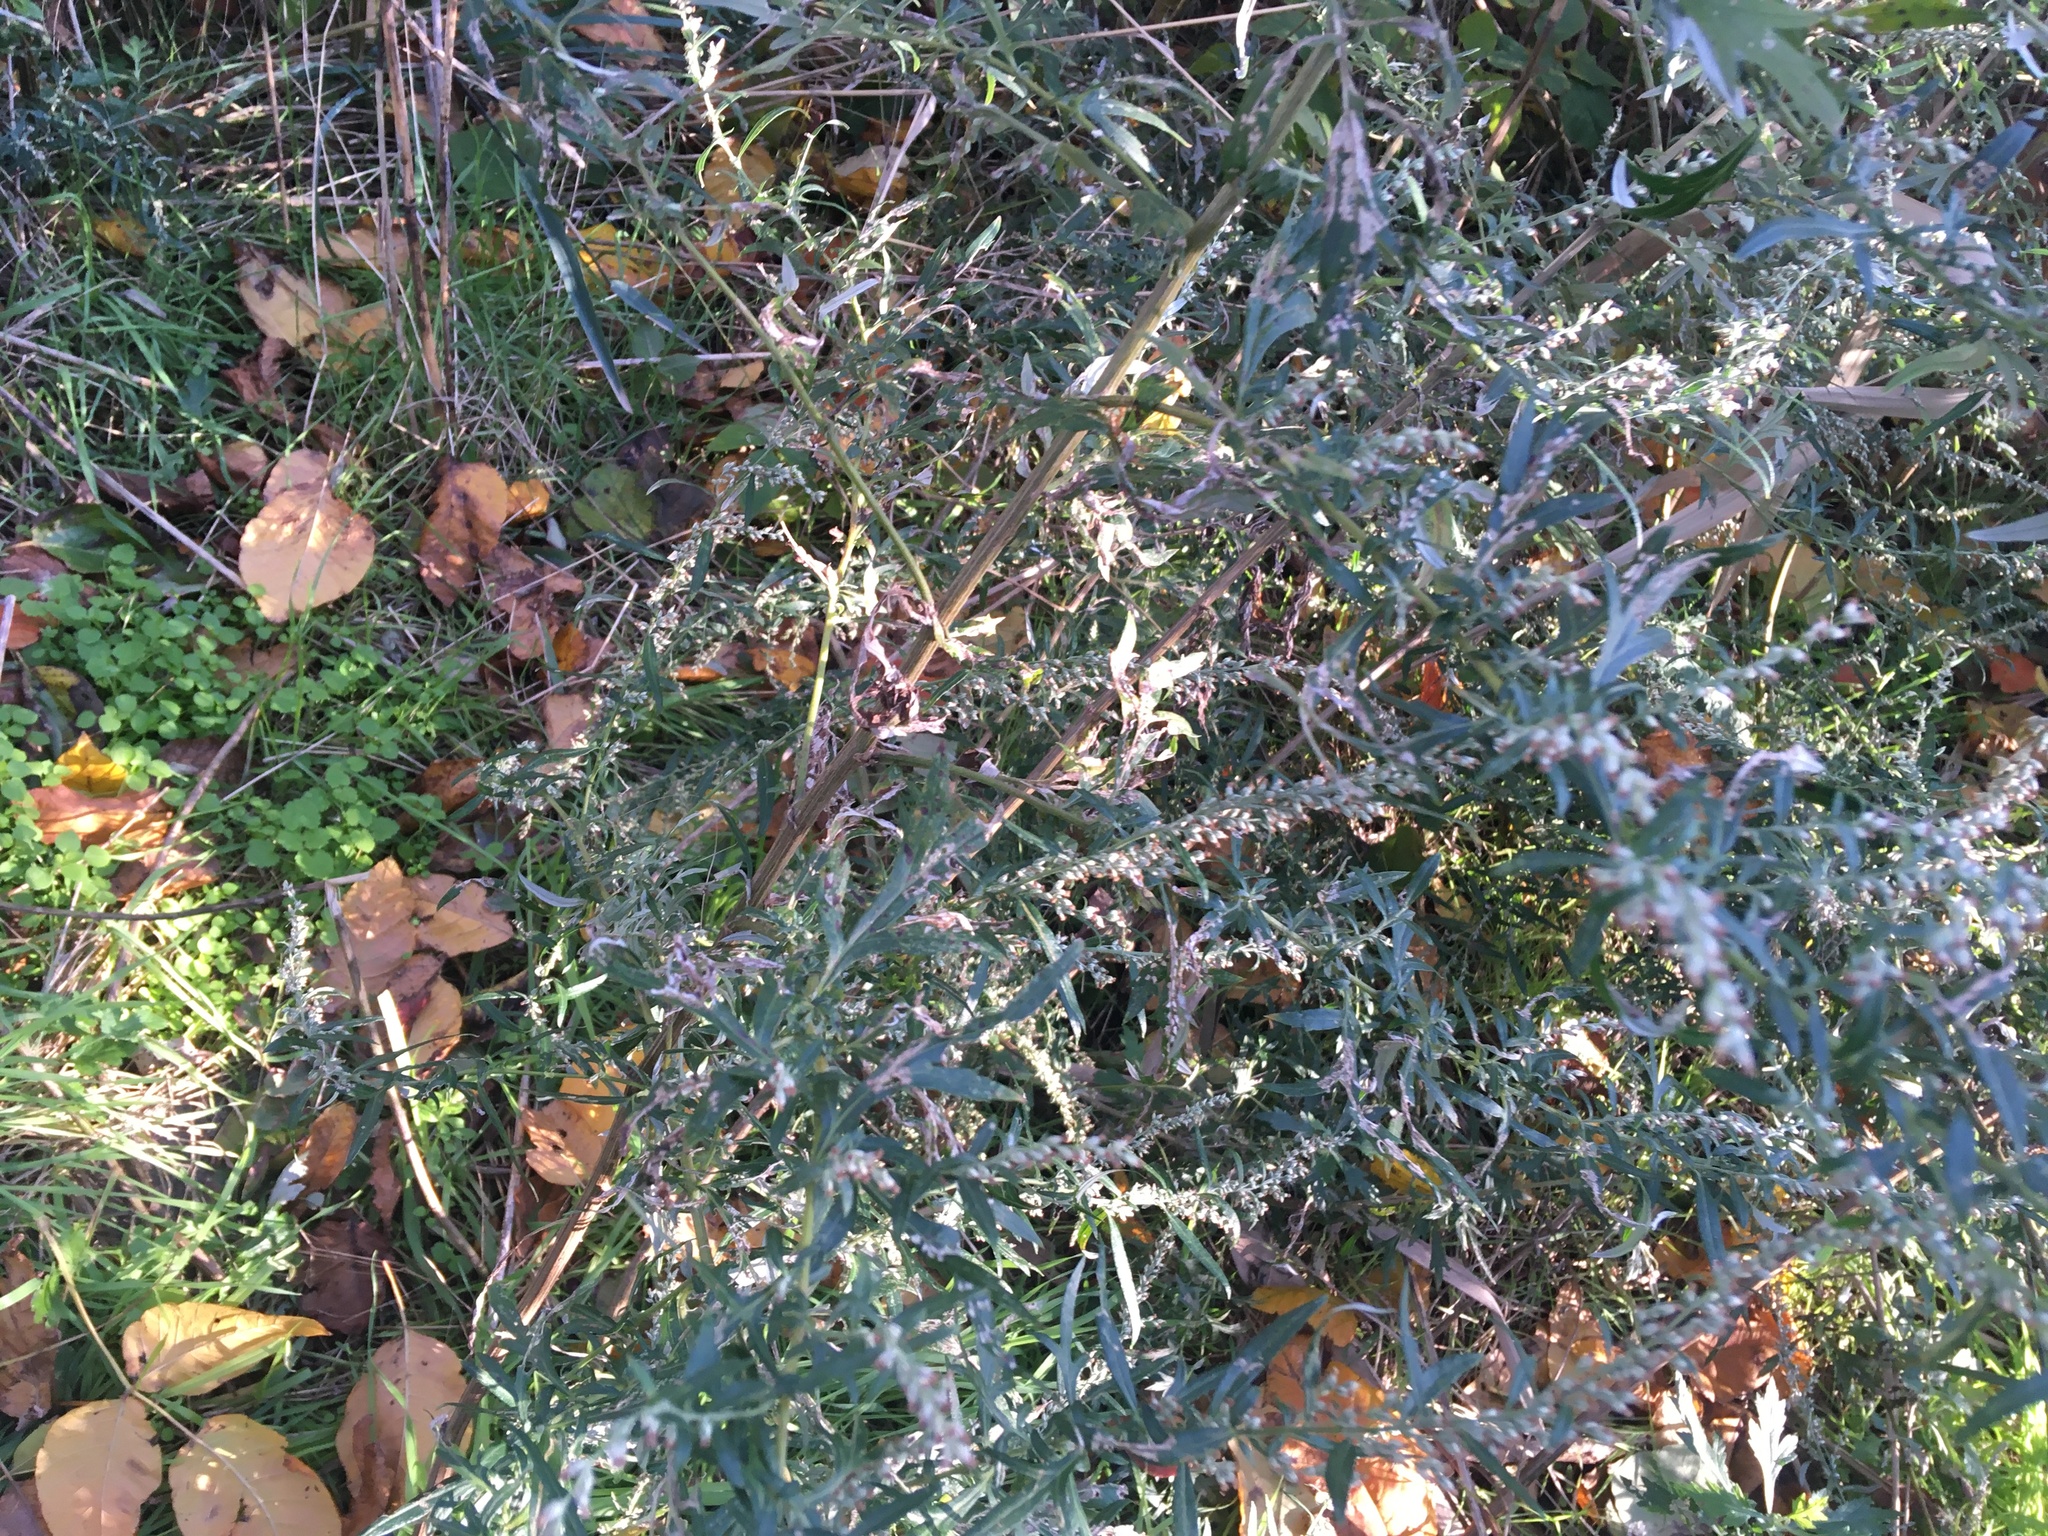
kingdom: Plantae
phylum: Tracheophyta
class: Magnoliopsida
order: Asterales
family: Asteraceae
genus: Artemisia
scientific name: Artemisia vulgaris
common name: Mugwort
